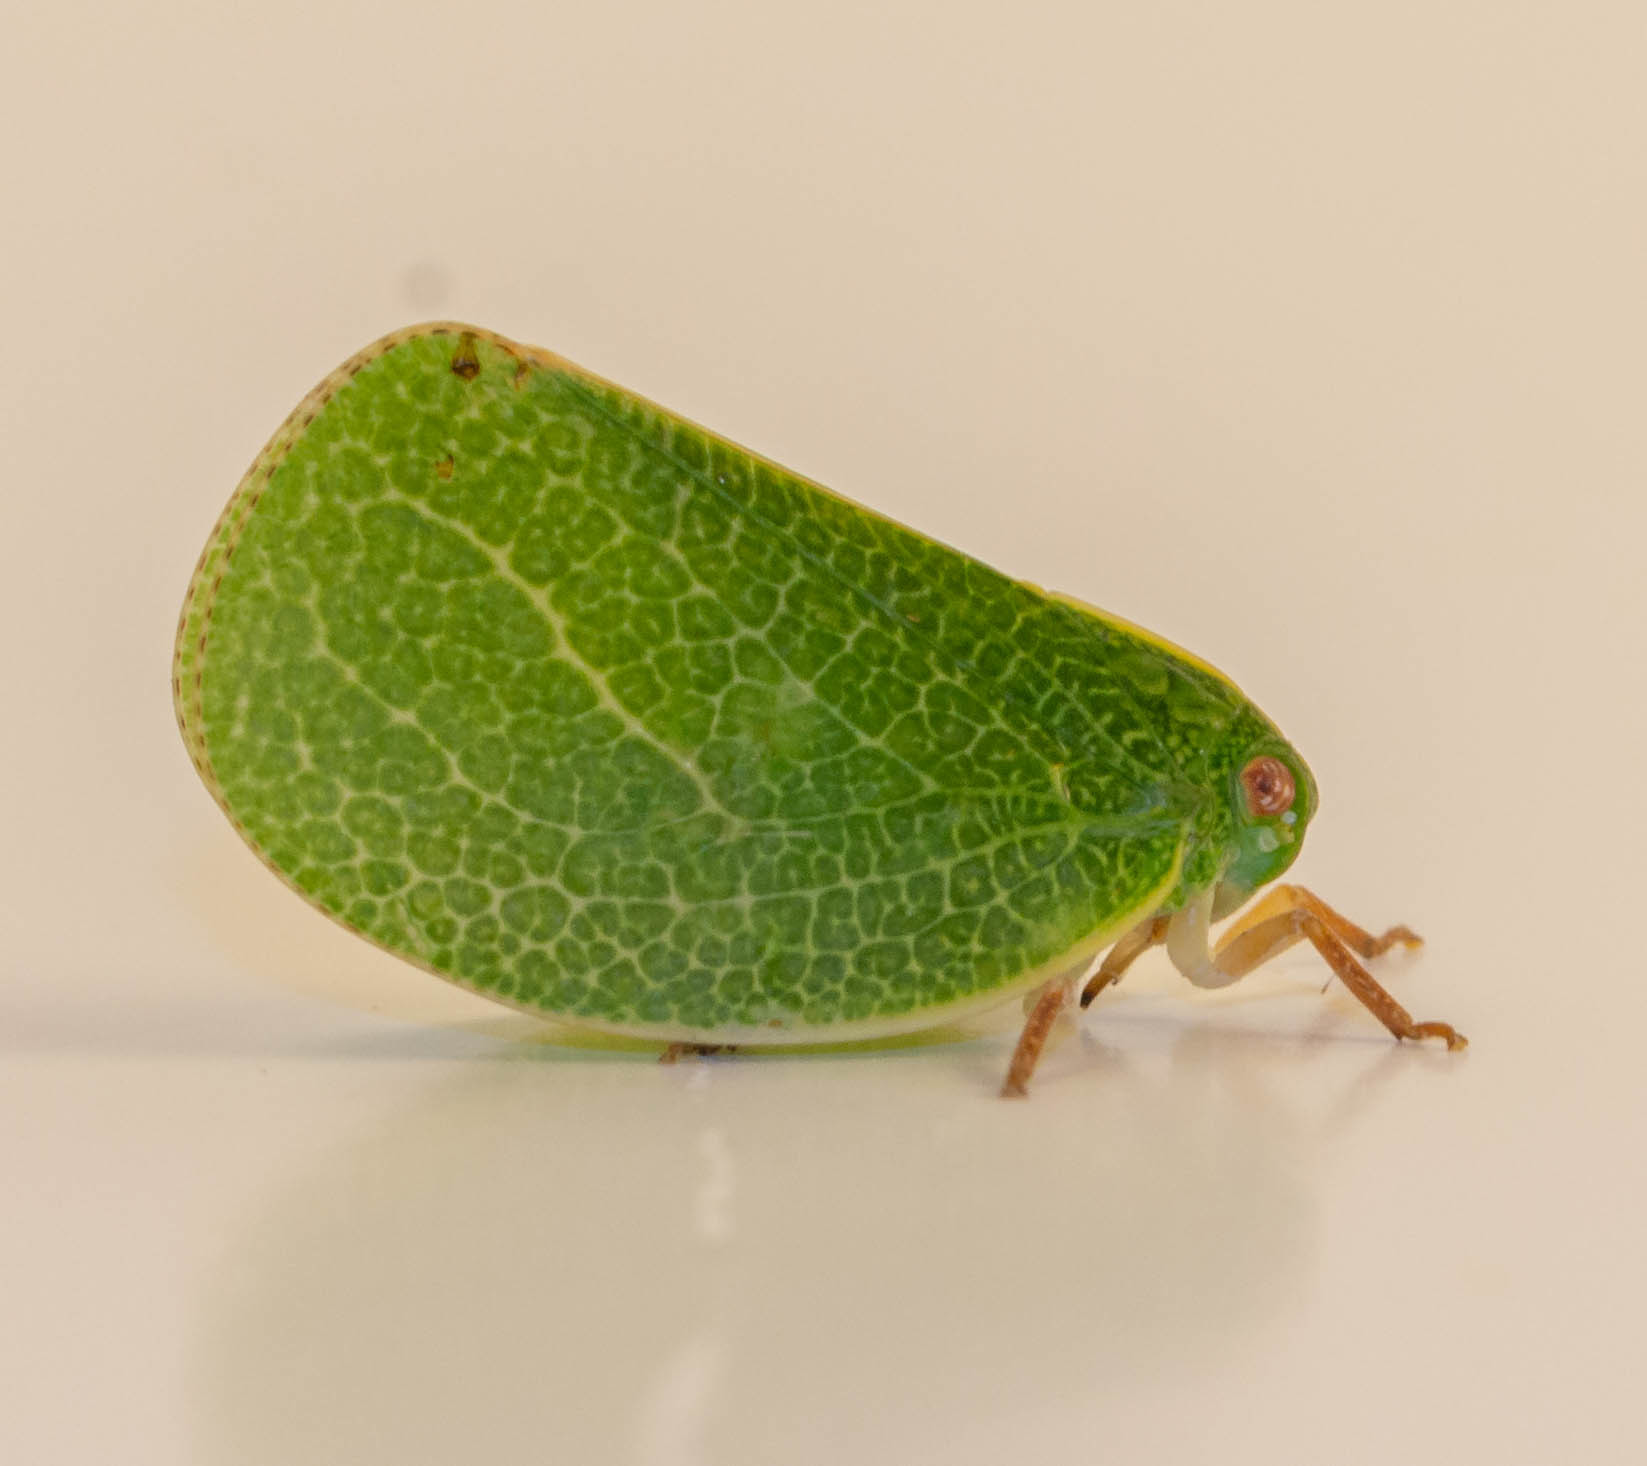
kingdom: Animalia
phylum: Arthropoda
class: Insecta
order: Hemiptera
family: Acanaloniidae
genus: Acanalonia
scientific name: Acanalonia servillei
